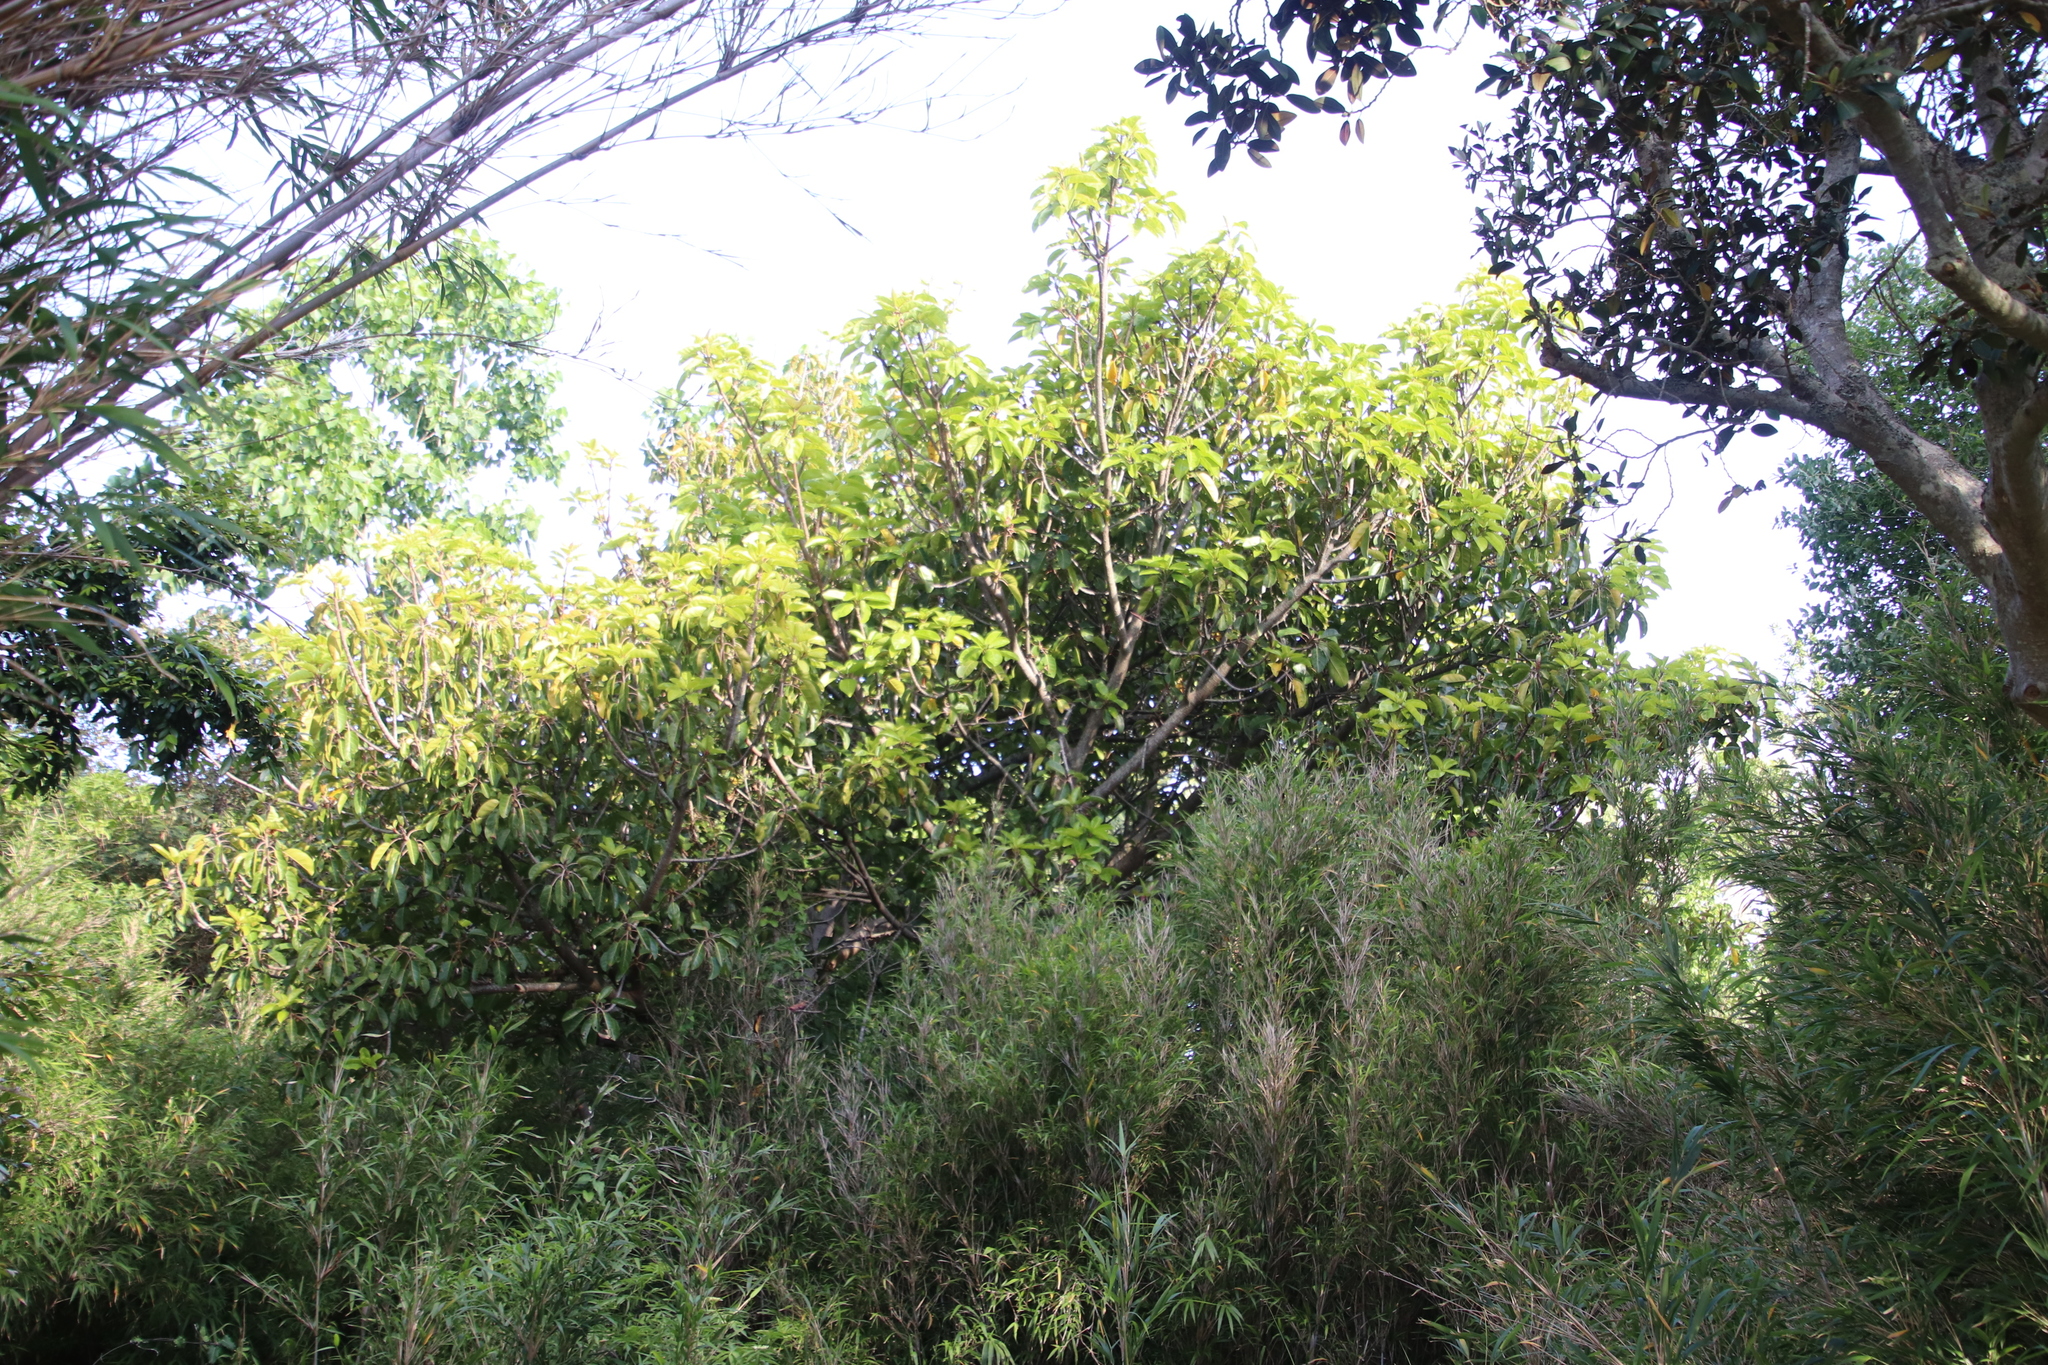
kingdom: Plantae
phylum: Tracheophyta
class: Magnoliopsida
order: Rosales
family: Moraceae
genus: Ficus
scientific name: Ficus lutea
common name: Giant-leaved fig
